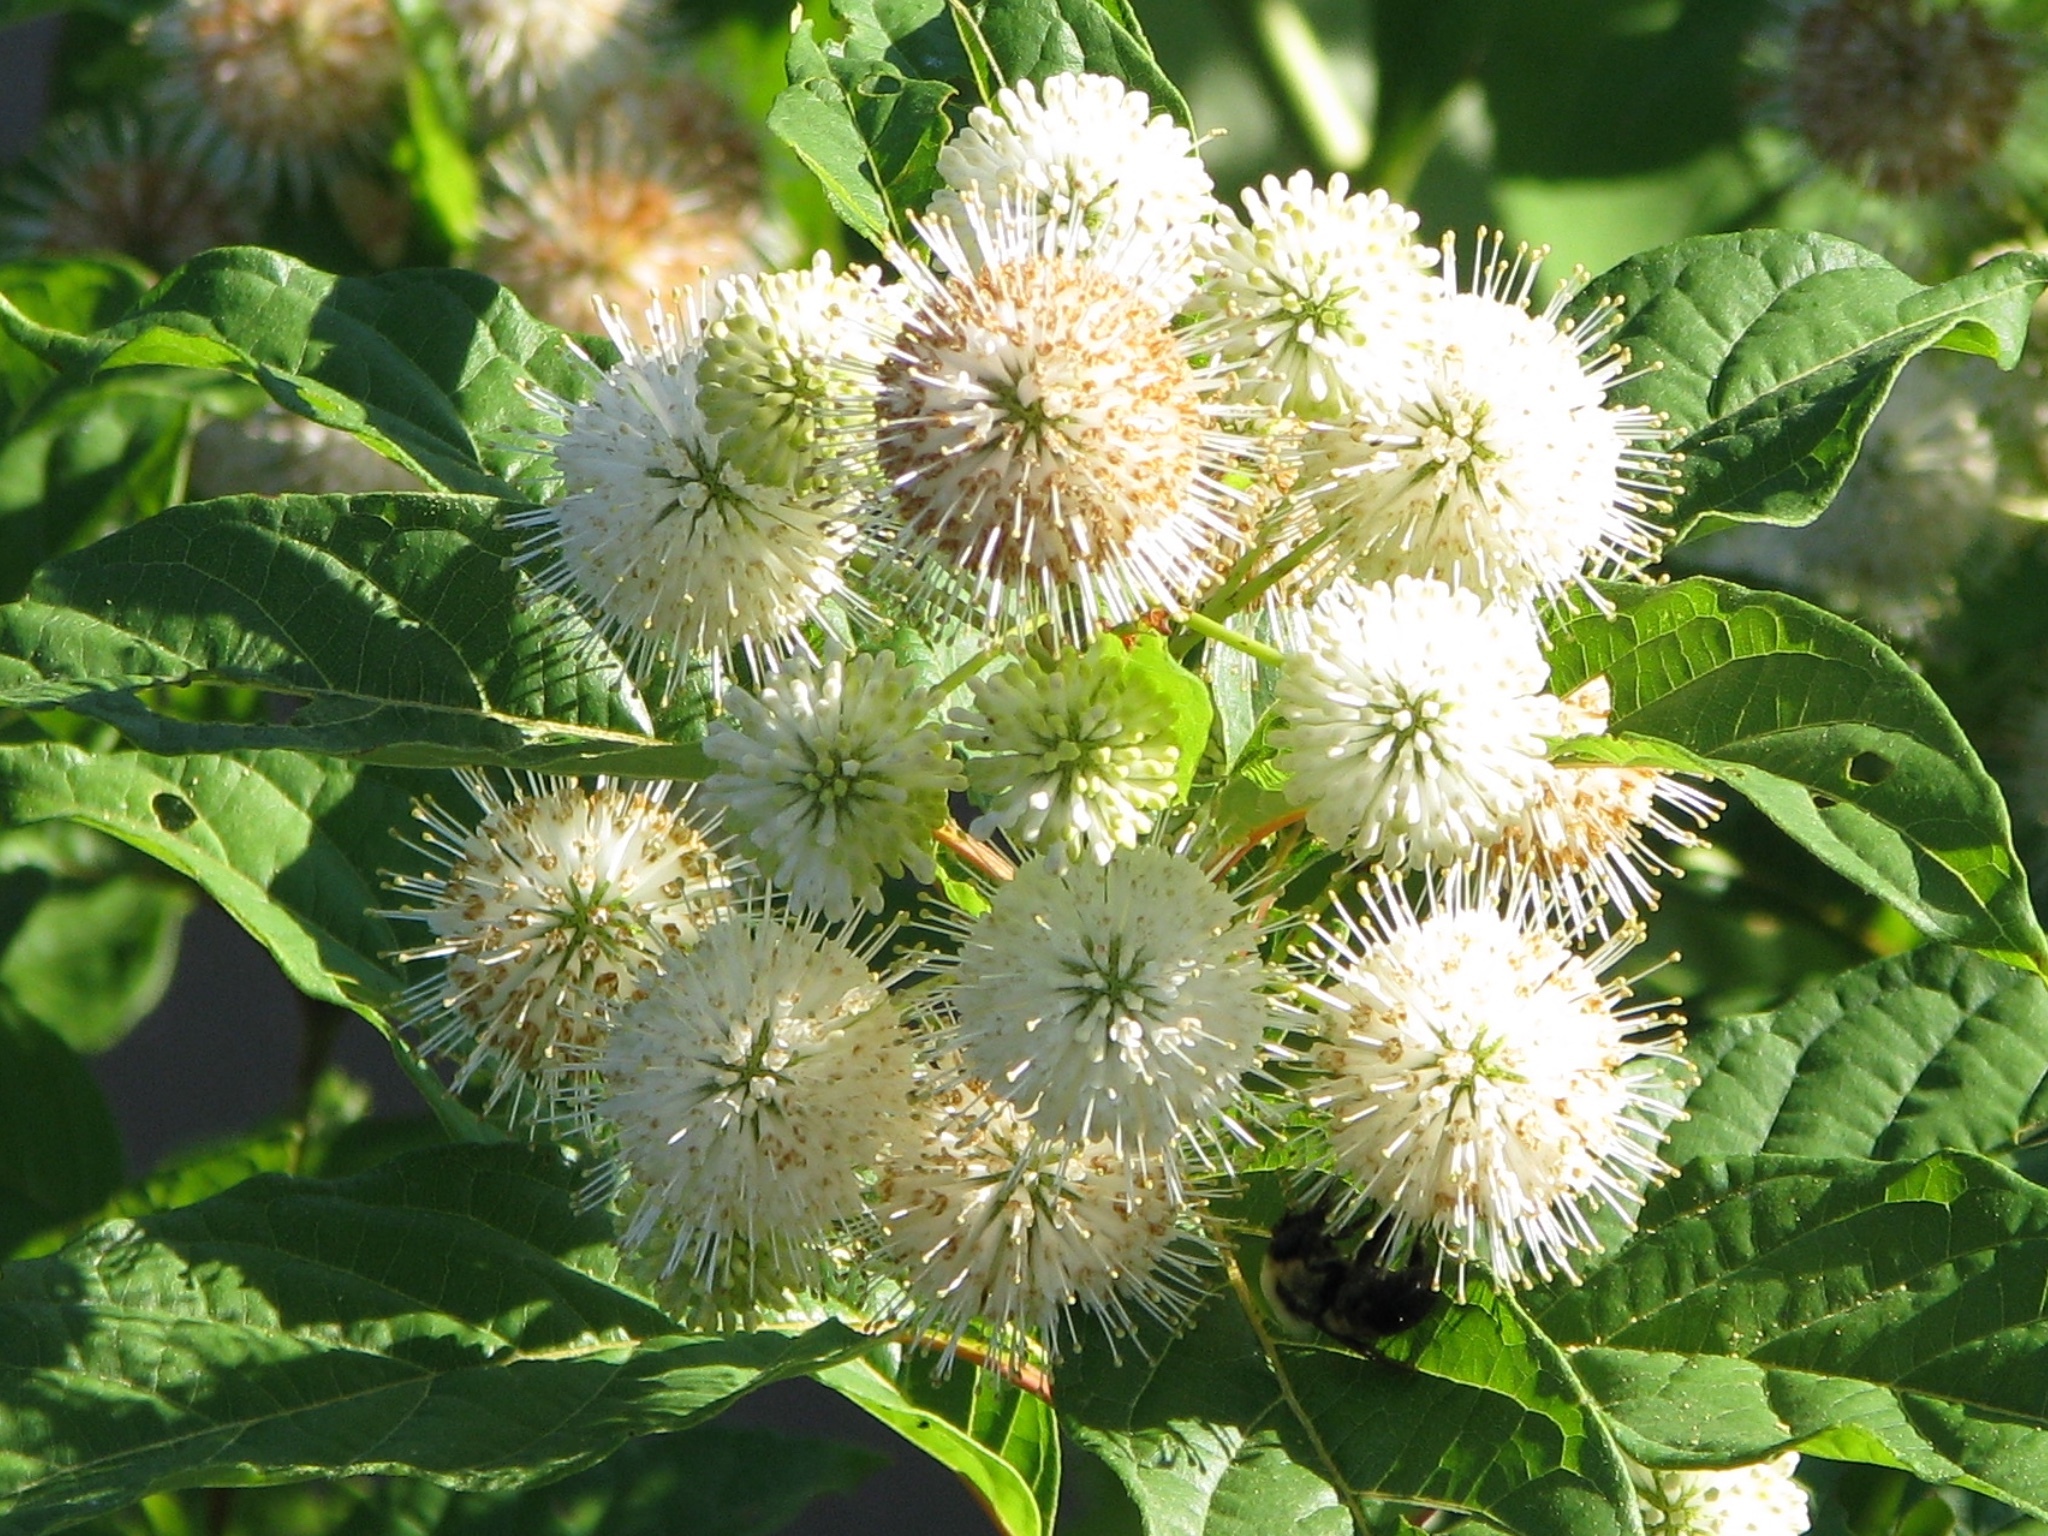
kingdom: Plantae
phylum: Tracheophyta
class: Magnoliopsida
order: Gentianales
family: Rubiaceae
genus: Cephalanthus
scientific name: Cephalanthus occidentalis
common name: Button-willow
